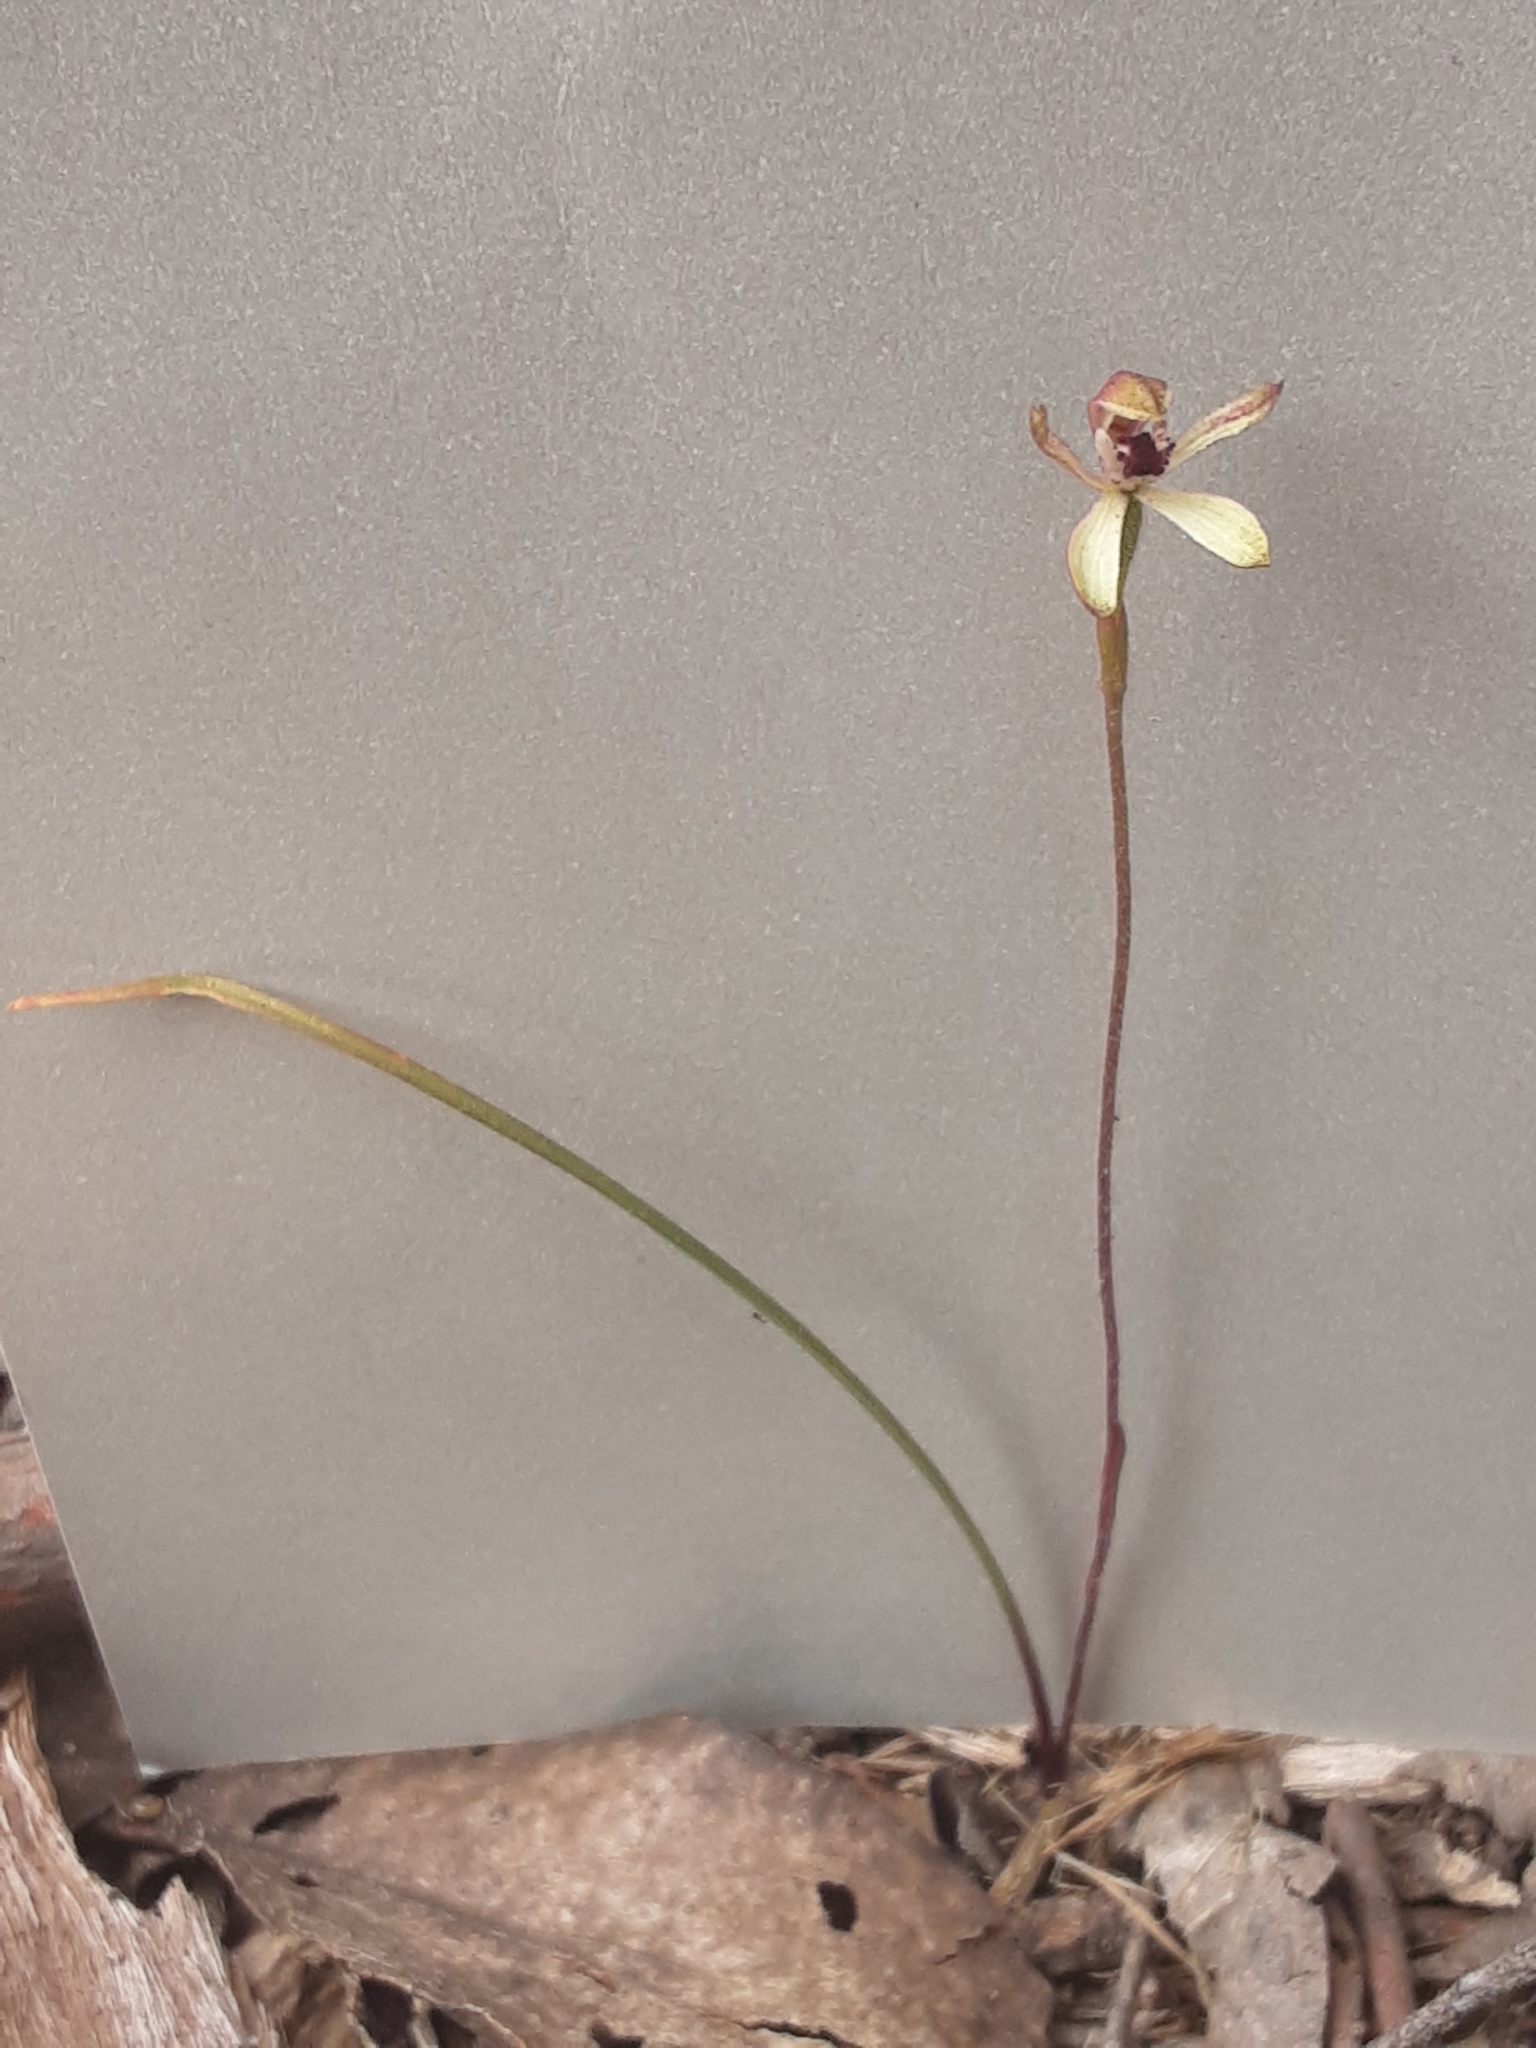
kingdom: Plantae
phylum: Tracheophyta
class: Liliopsida
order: Asparagales
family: Orchidaceae
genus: Caladenia
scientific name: Caladenia transitoria
